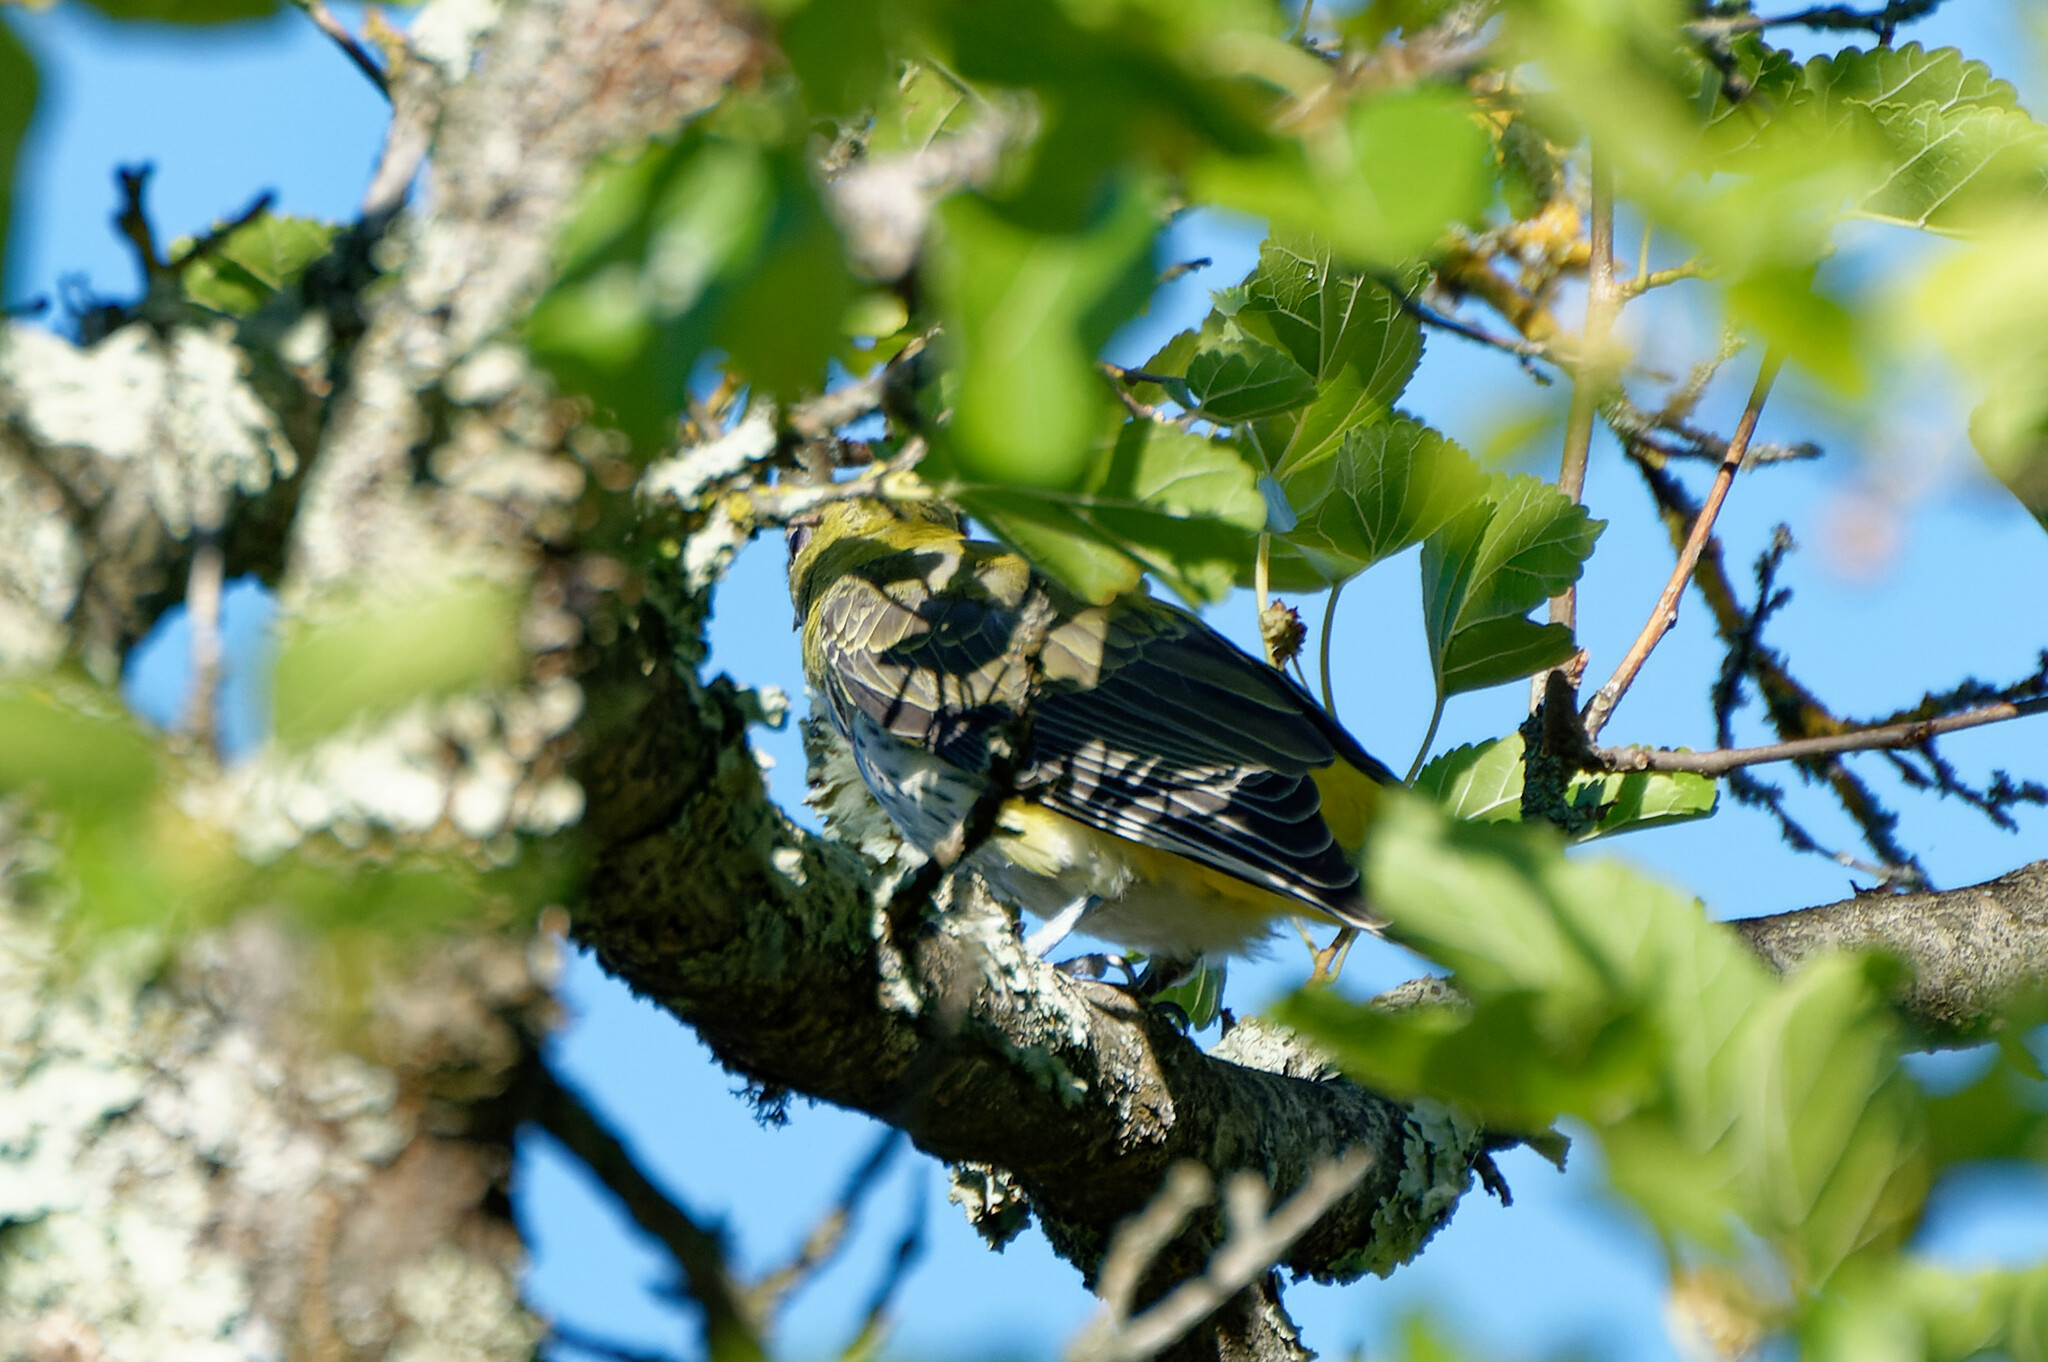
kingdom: Animalia
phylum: Chordata
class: Aves
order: Passeriformes
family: Oriolidae
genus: Oriolus
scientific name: Oriolus oriolus
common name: Eurasian golden oriole
